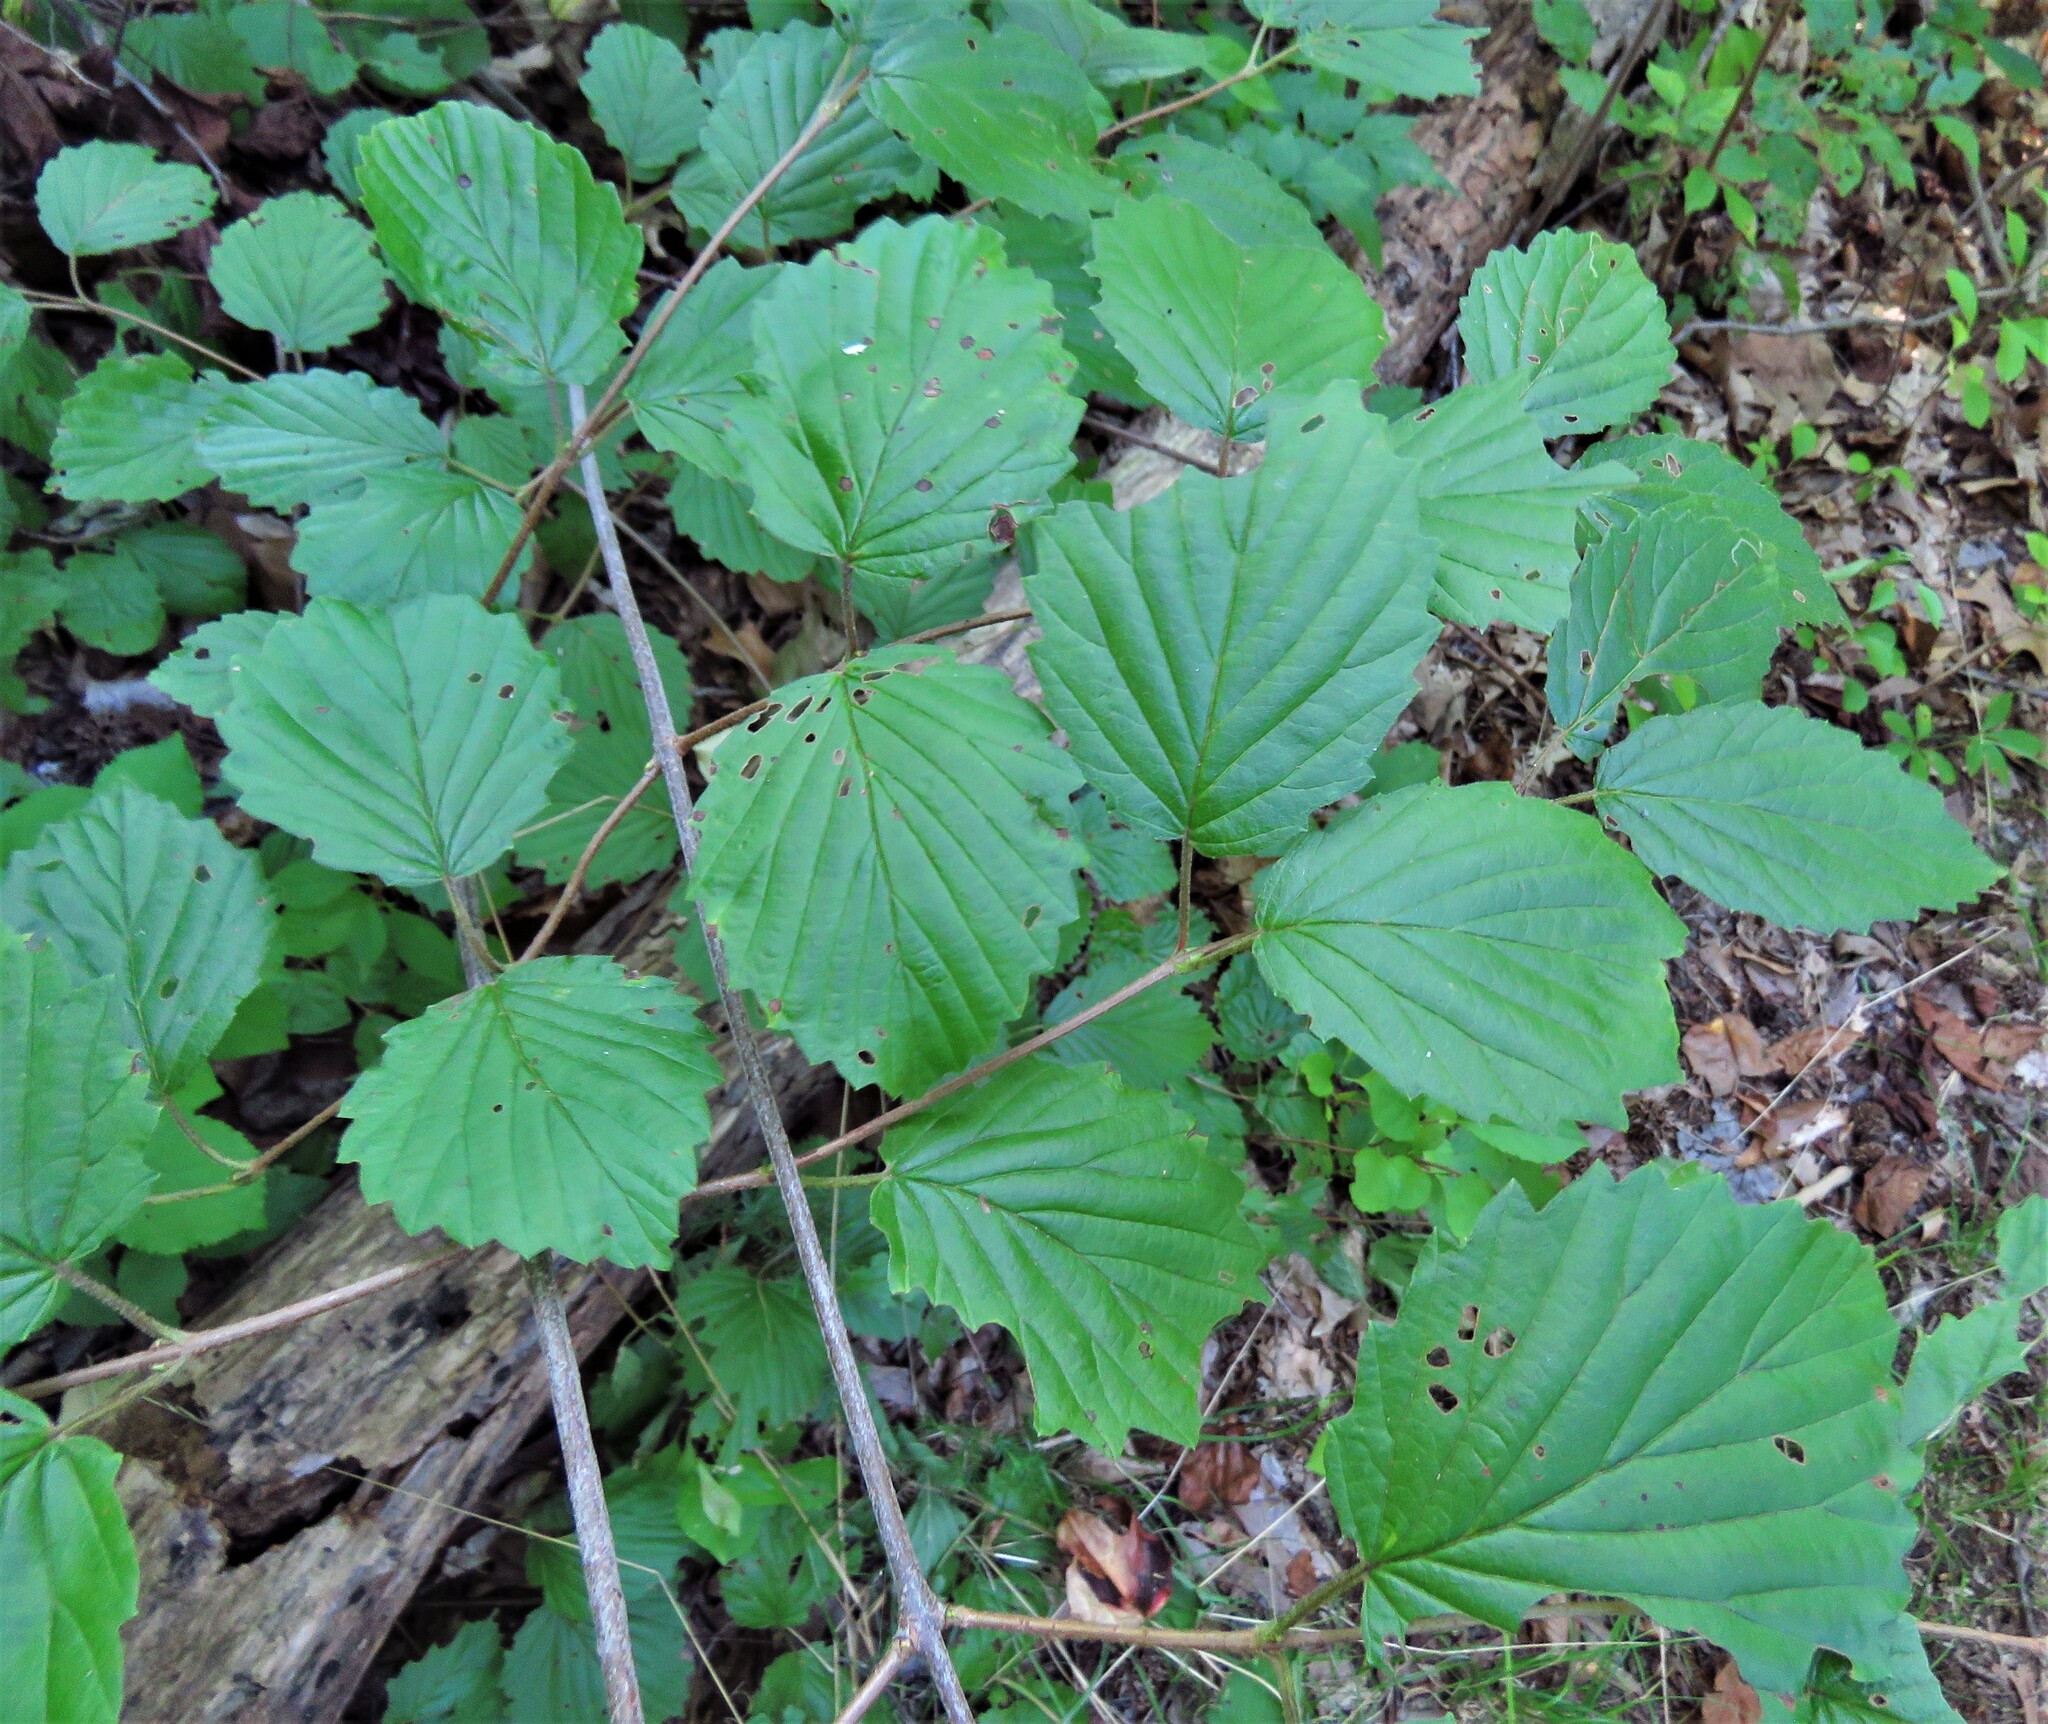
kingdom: Plantae
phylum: Tracheophyta
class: Magnoliopsida
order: Dipsacales
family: Viburnaceae
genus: Viburnum
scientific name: Viburnum dentatum
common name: Arrow-wood
